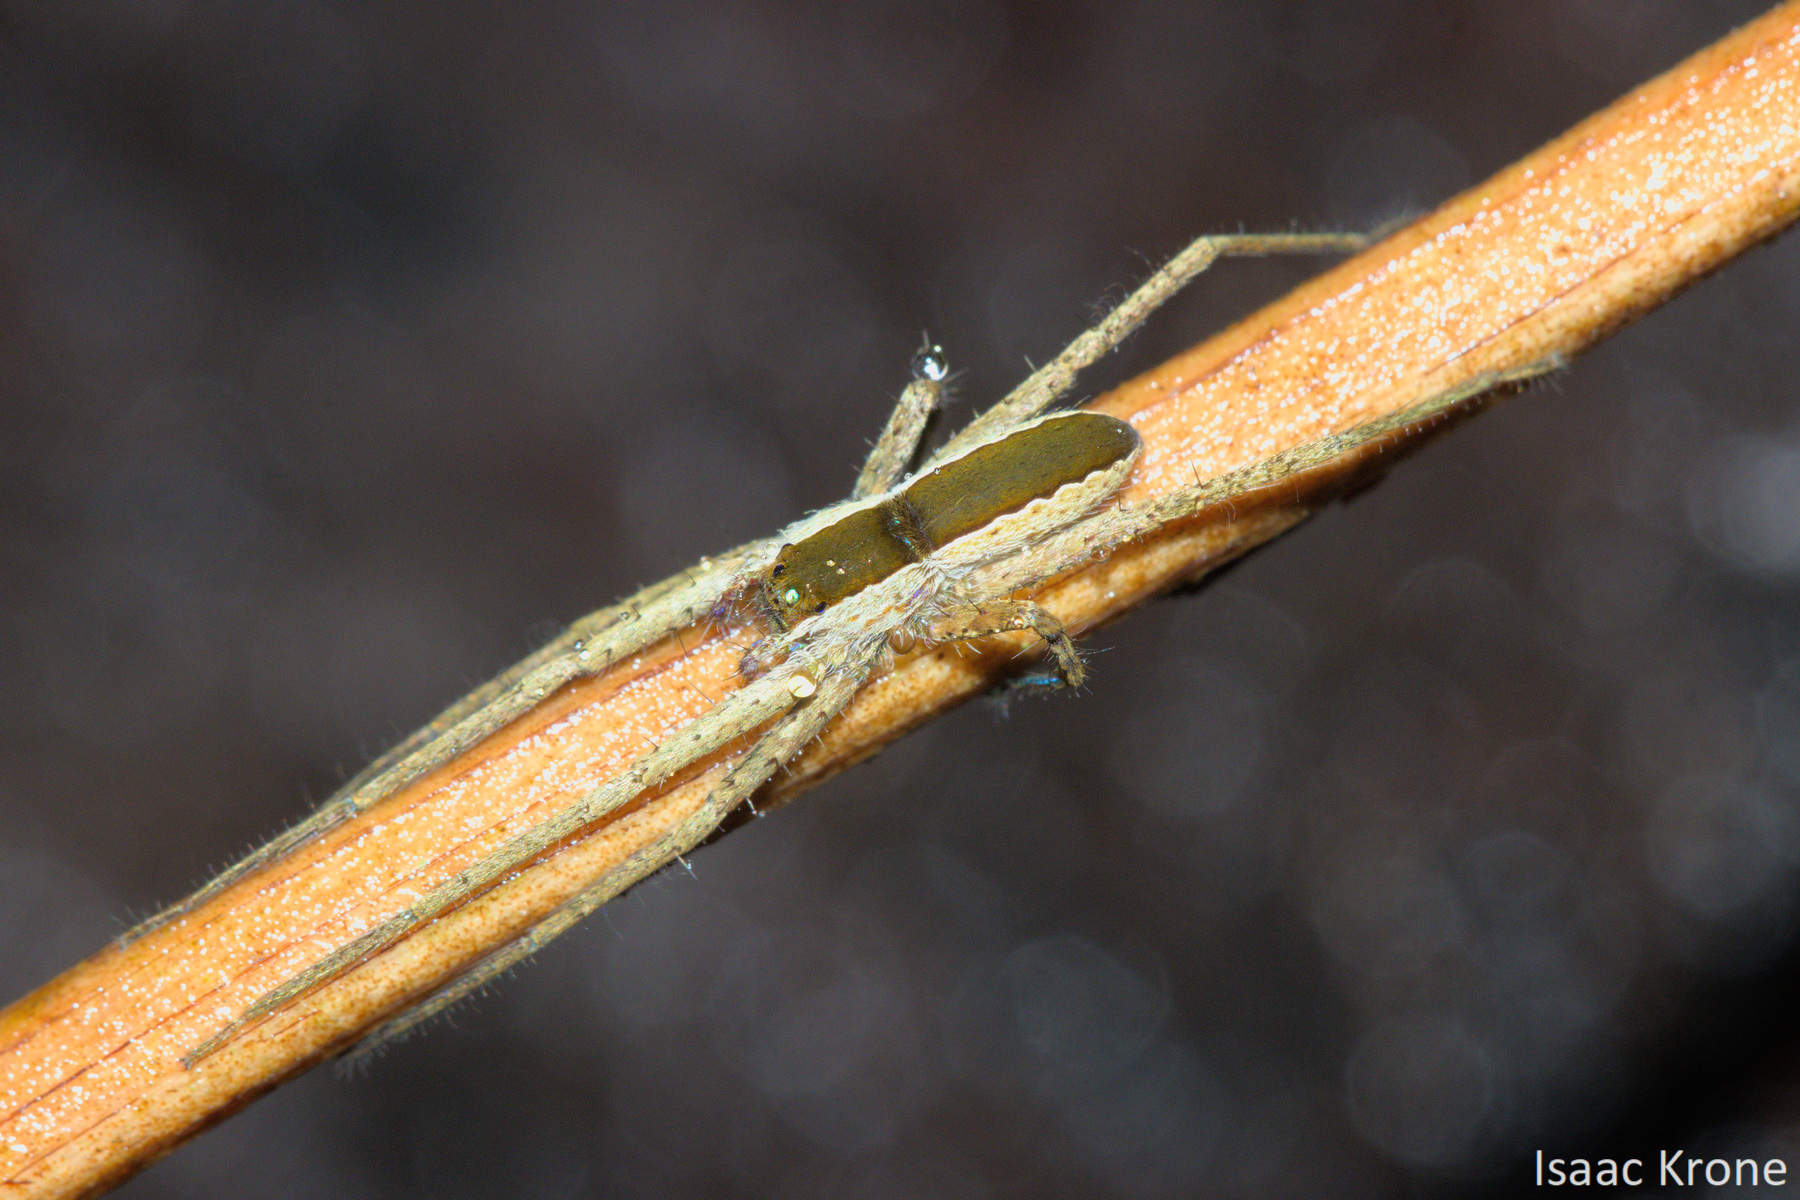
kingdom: Animalia
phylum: Arthropoda
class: Arachnida
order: Araneae
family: Trechaleidae
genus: Dossenus
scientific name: Dossenus marginatus
